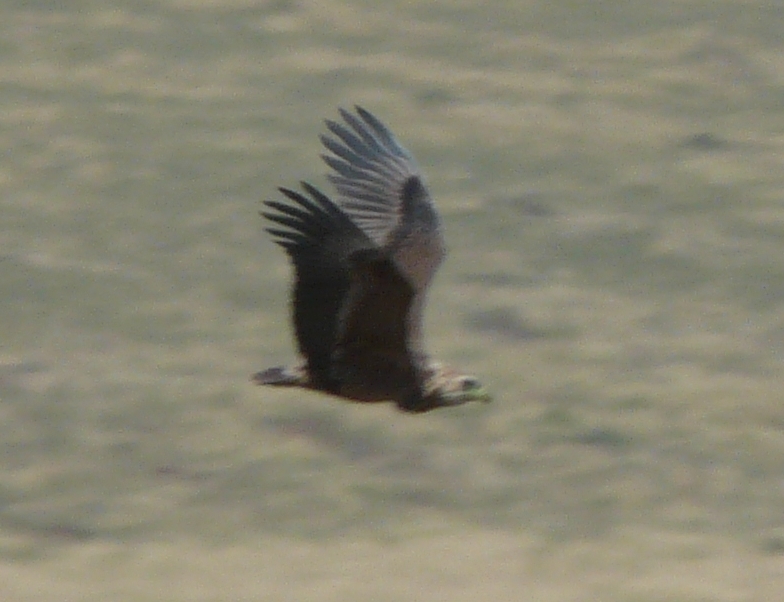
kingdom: Animalia
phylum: Chordata
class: Aves
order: Accipitriformes
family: Accipitridae
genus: Terathopius
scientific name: Terathopius ecaudatus
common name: Bateleur
